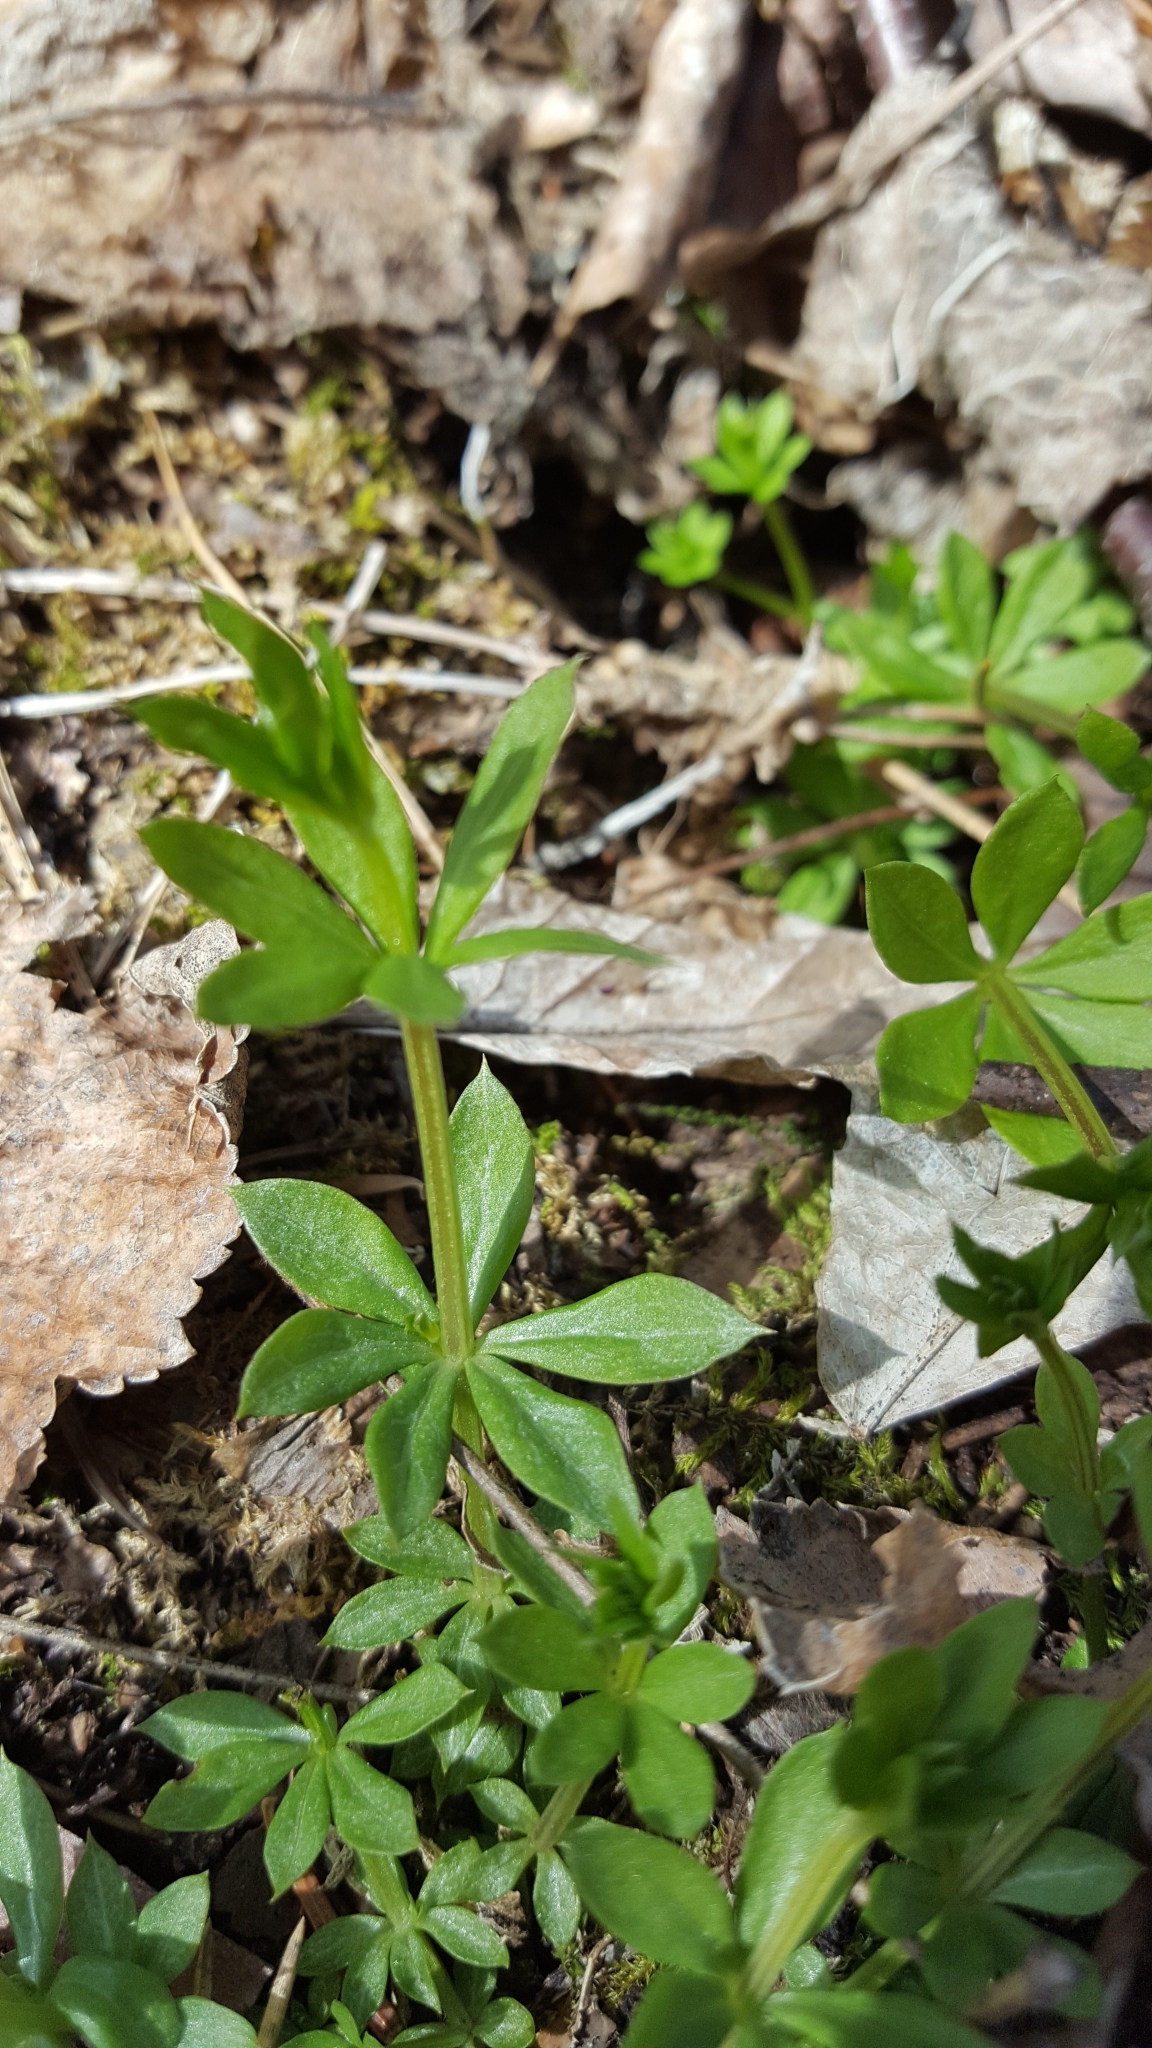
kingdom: Plantae
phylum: Tracheophyta
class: Magnoliopsida
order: Gentianales
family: Rubiaceae
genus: Galium
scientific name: Galium triflorum
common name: Fragrant bedstraw
